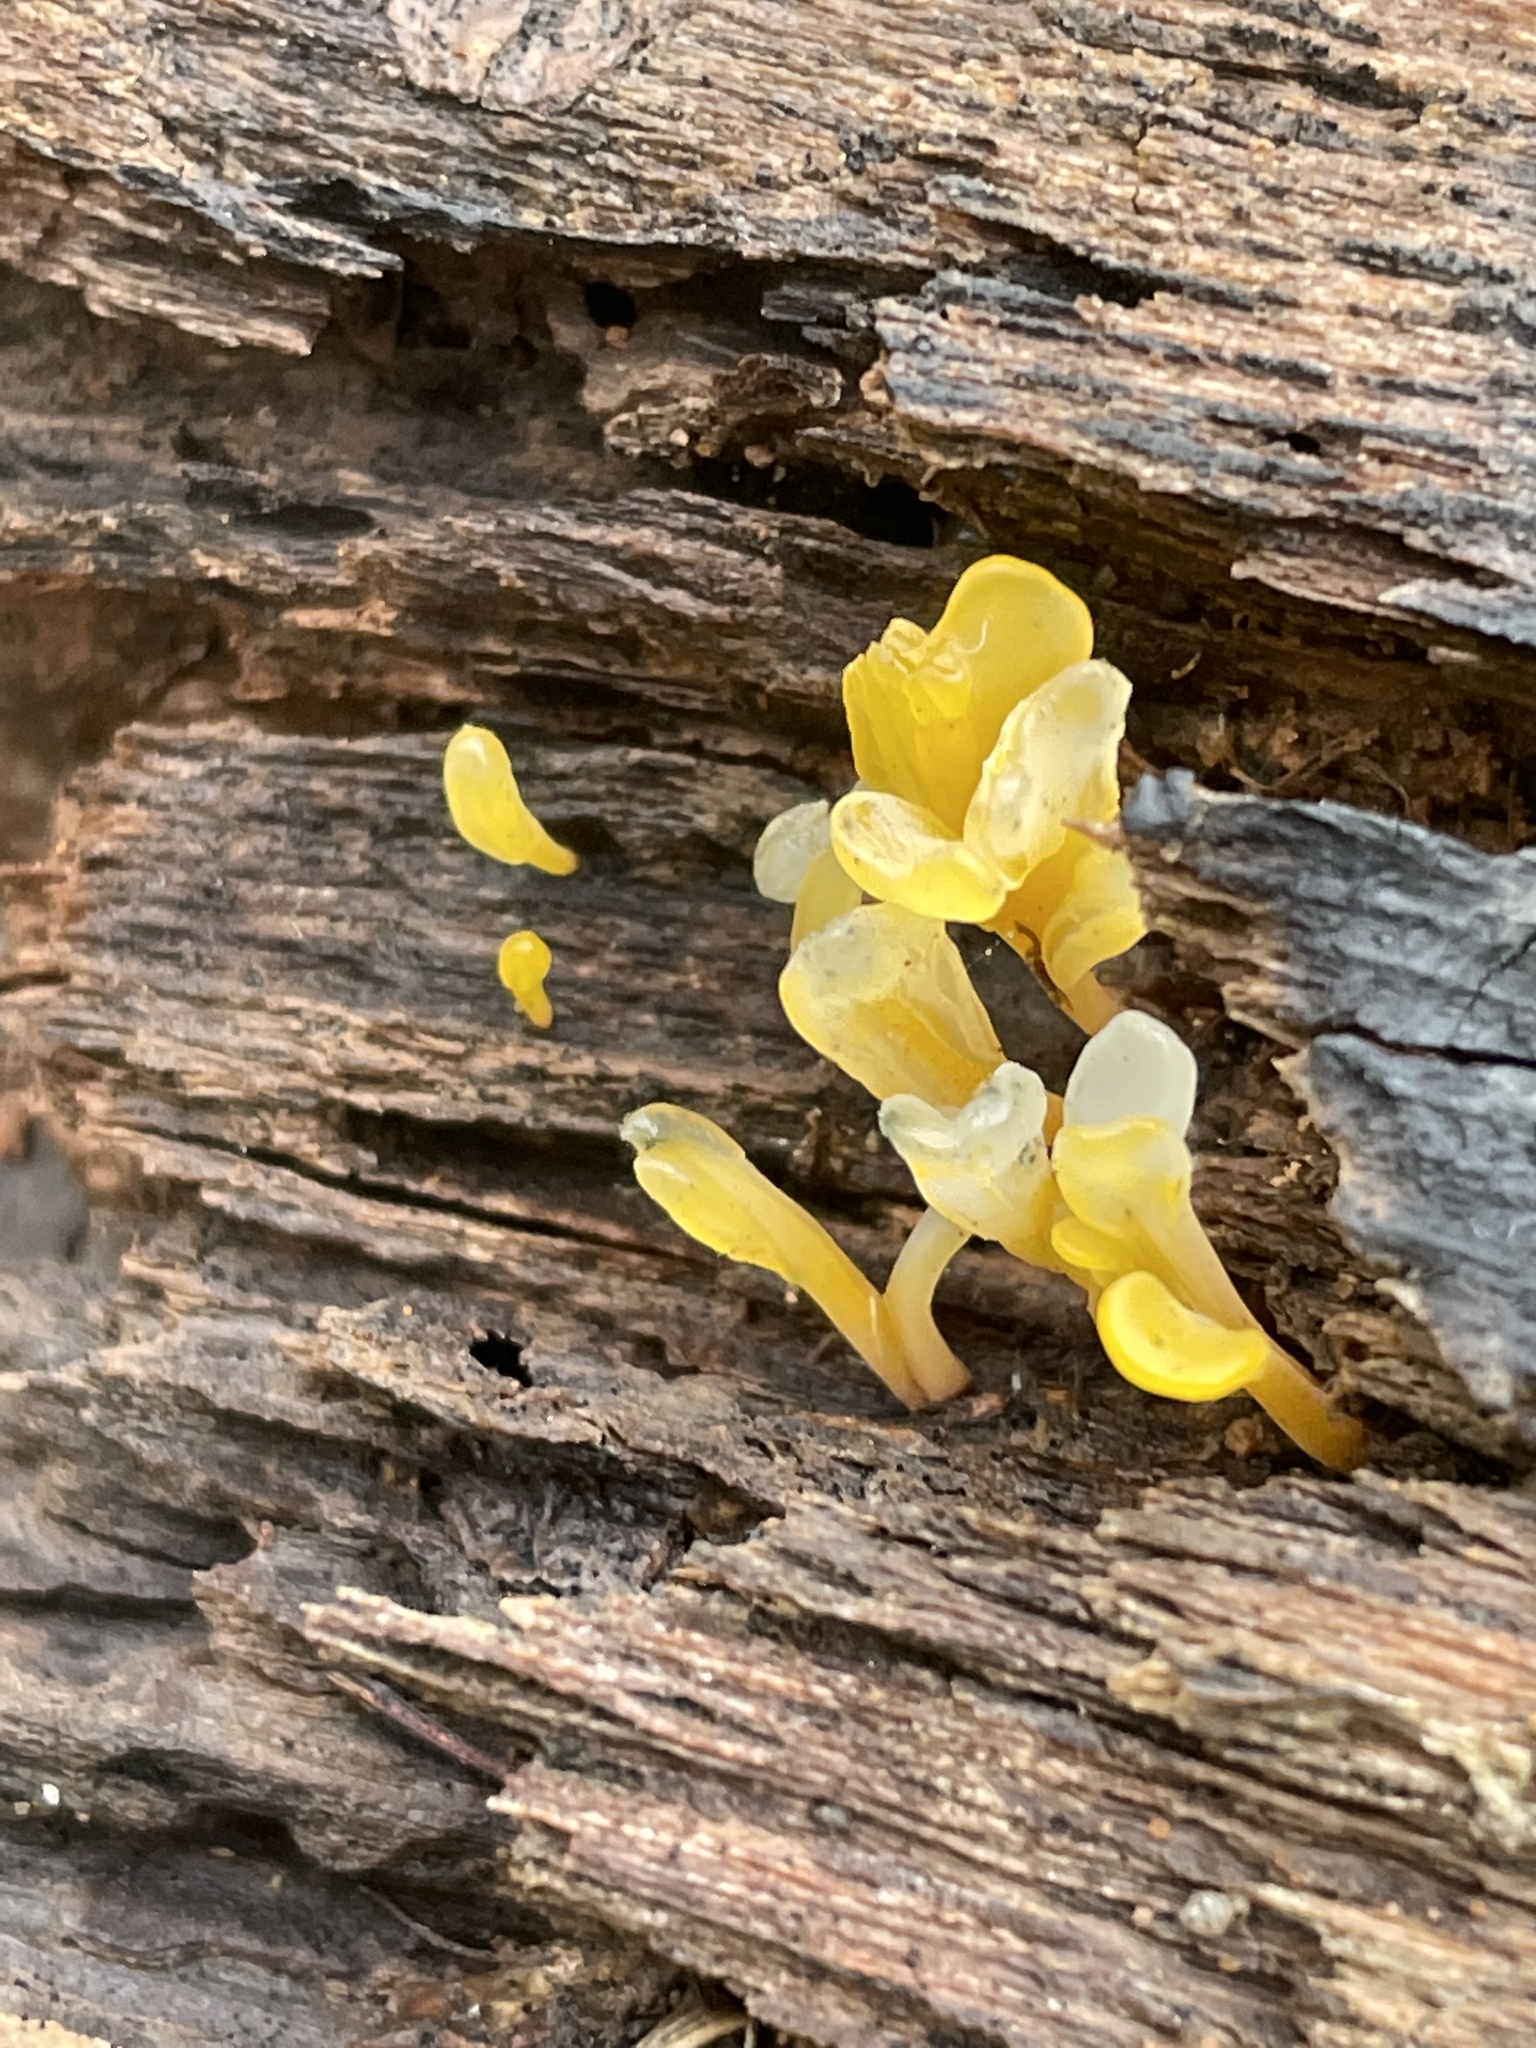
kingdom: Fungi
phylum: Basidiomycota
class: Dacrymycetes
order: Dacrymycetales
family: Dacrymycetaceae
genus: Dacrymyces
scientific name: Dacrymyces spathularius
